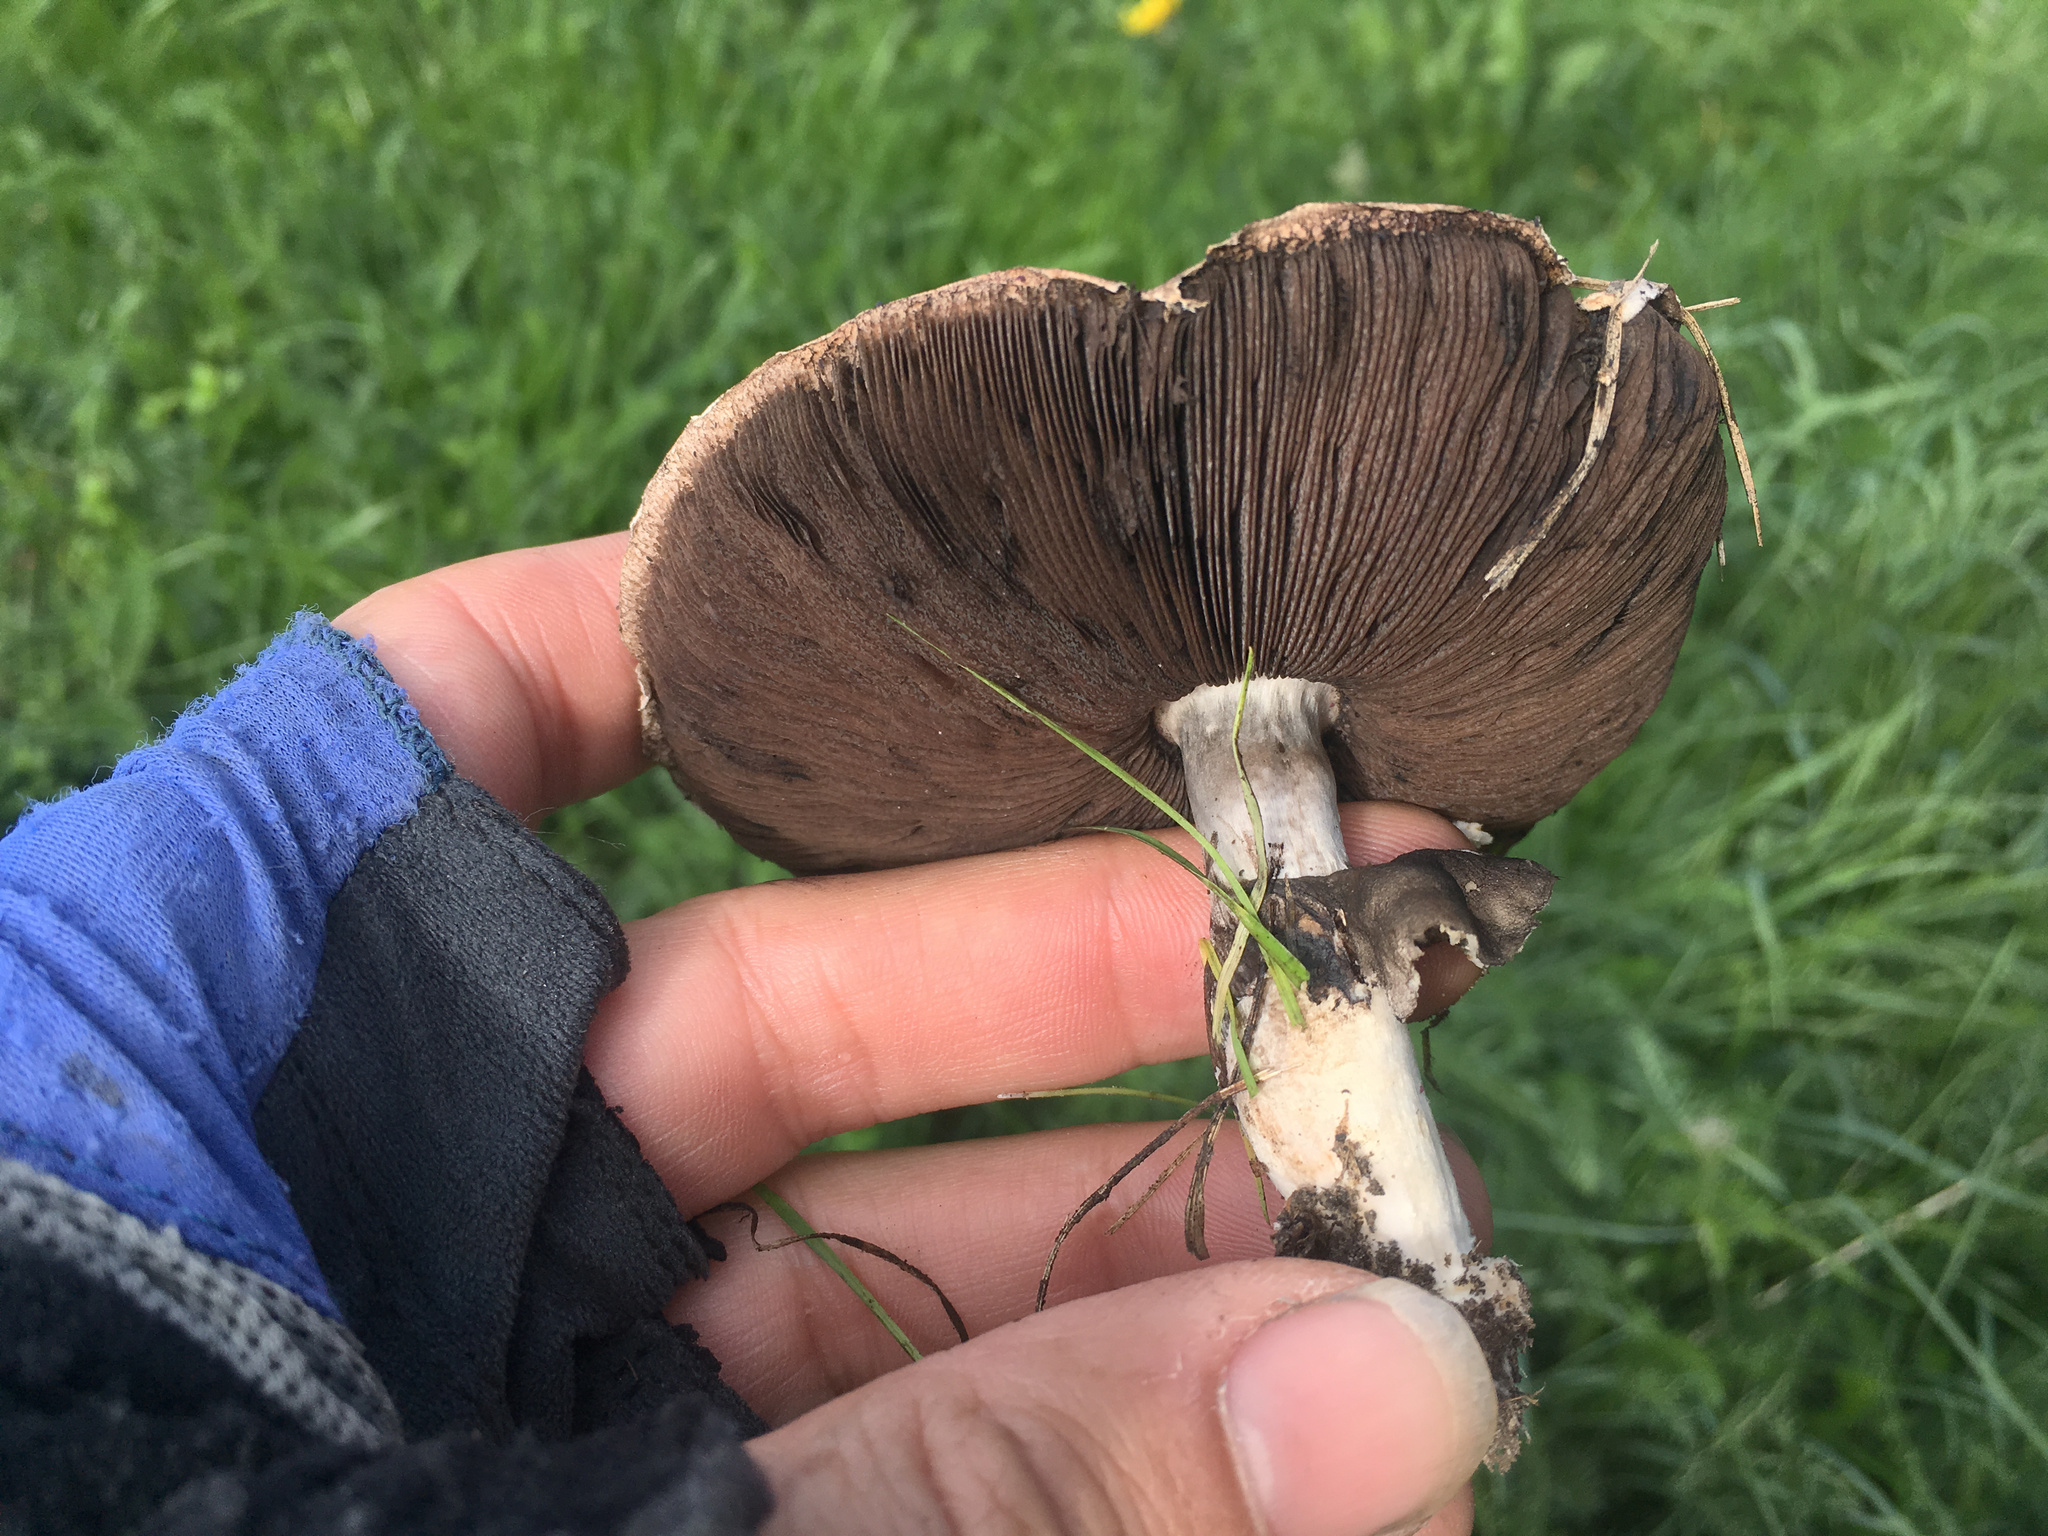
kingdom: Fungi
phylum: Basidiomycota
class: Agaricomycetes
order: Agaricales
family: Agaricaceae
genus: Agaricus
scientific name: Agaricus
